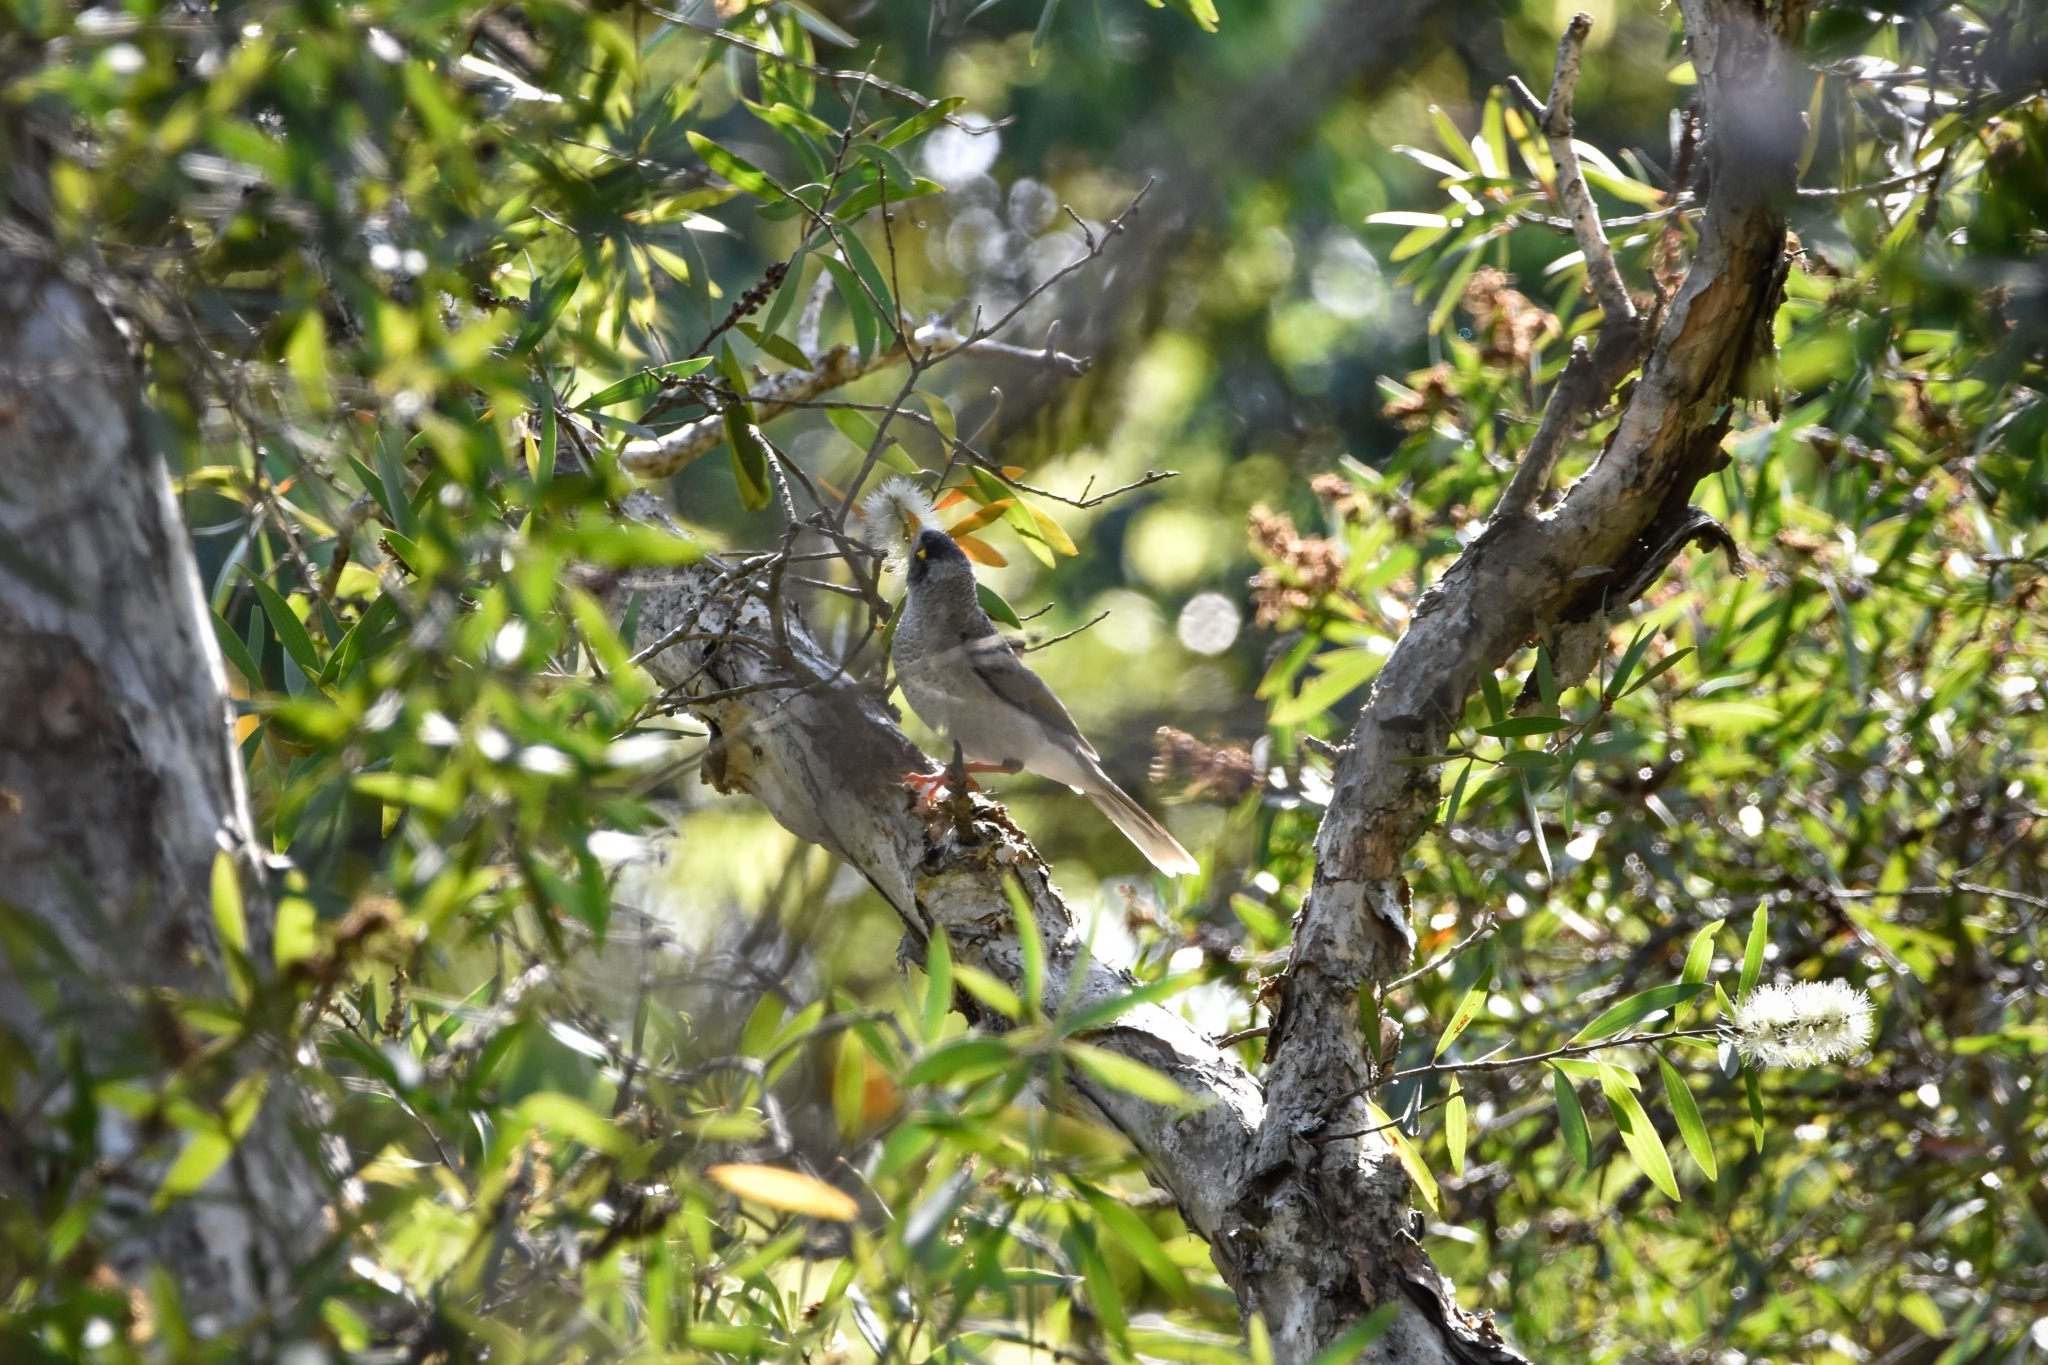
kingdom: Animalia
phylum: Chordata
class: Aves
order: Passeriformes
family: Meliphagidae
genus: Manorina
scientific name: Manorina melanocephala
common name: Noisy miner
